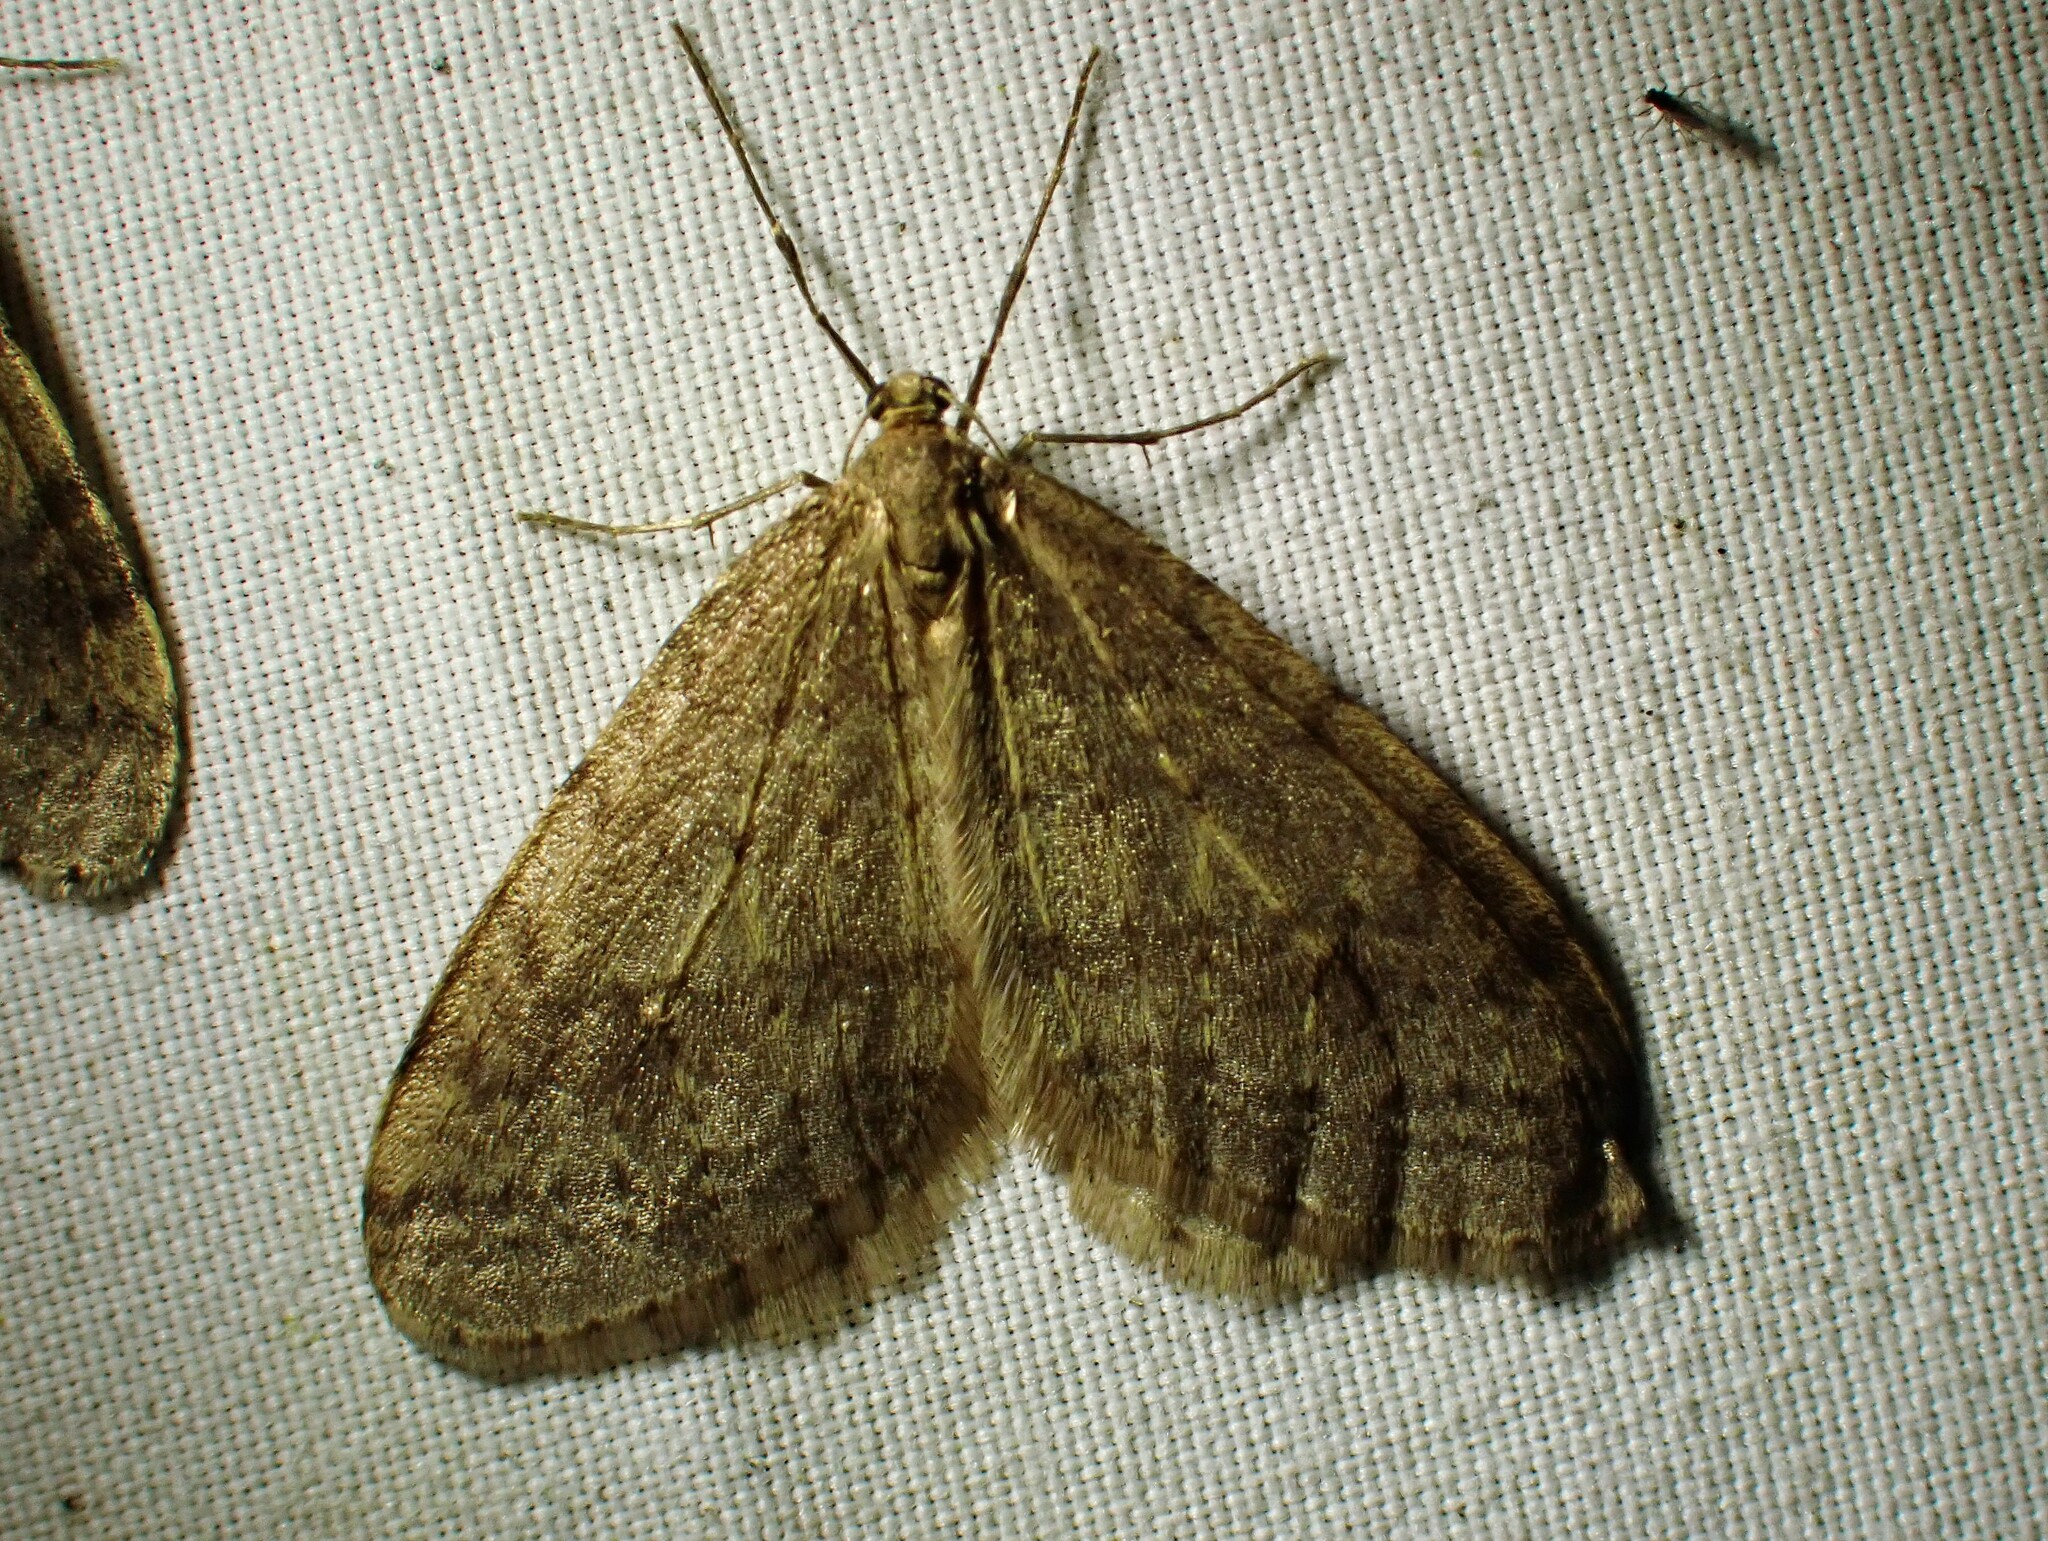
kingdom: Animalia
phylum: Arthropoda
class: Insecta
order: Lepidoptera
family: Geometridae
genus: Operophtera
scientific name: Operophtera bruceata
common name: Bruce spanworm
